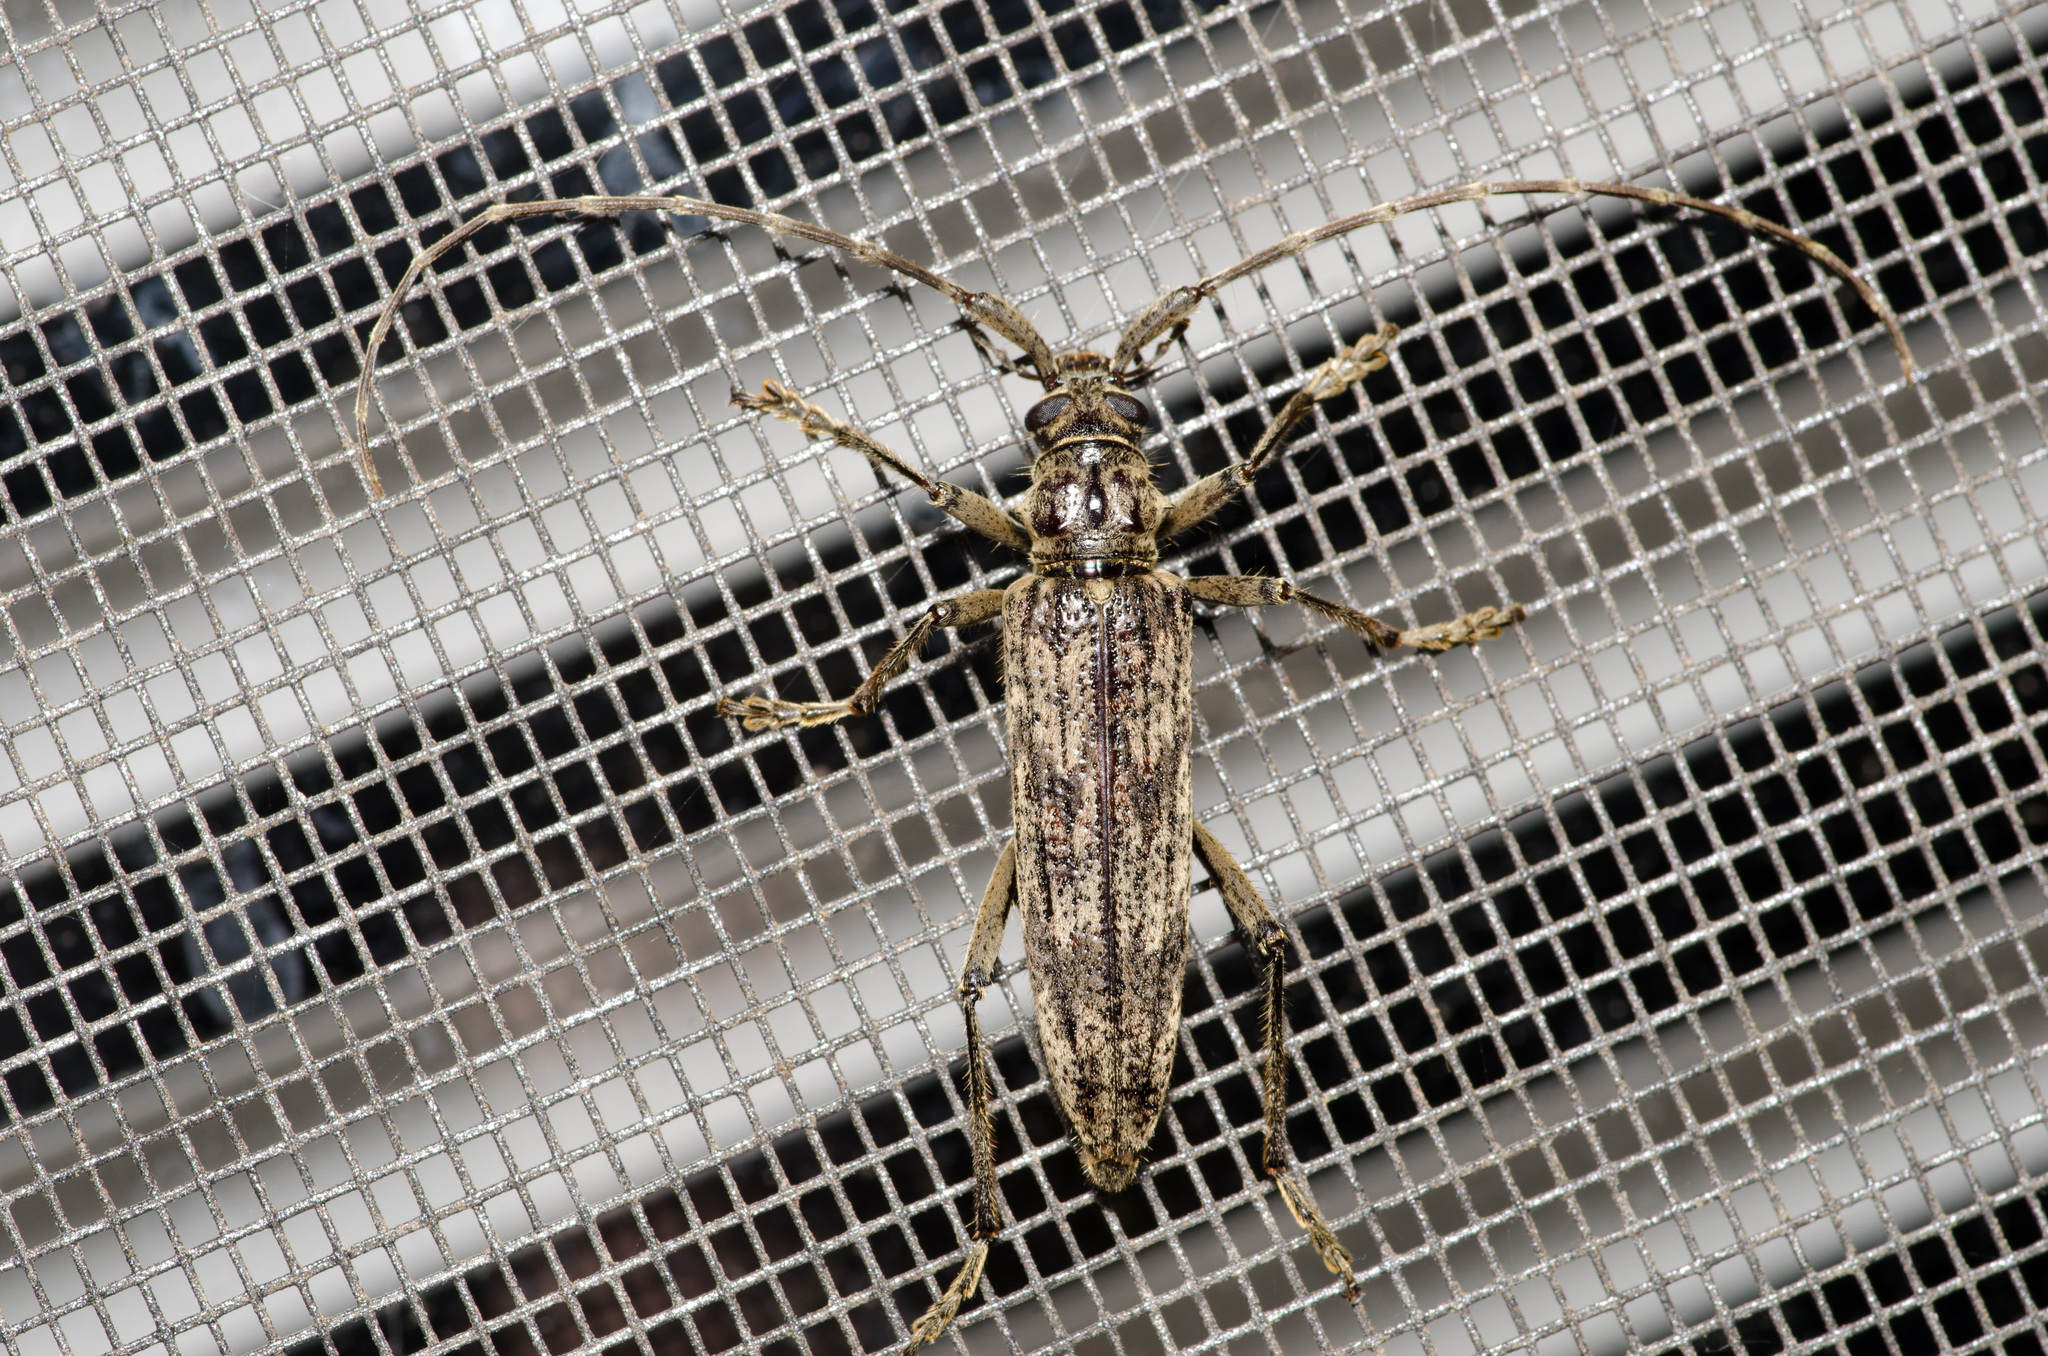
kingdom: Animalia
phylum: Arthropoda
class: Insecta
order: Coleoptera
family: Cerambycidae
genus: Elytrimitatrix
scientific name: Elytrimitatrix undata
